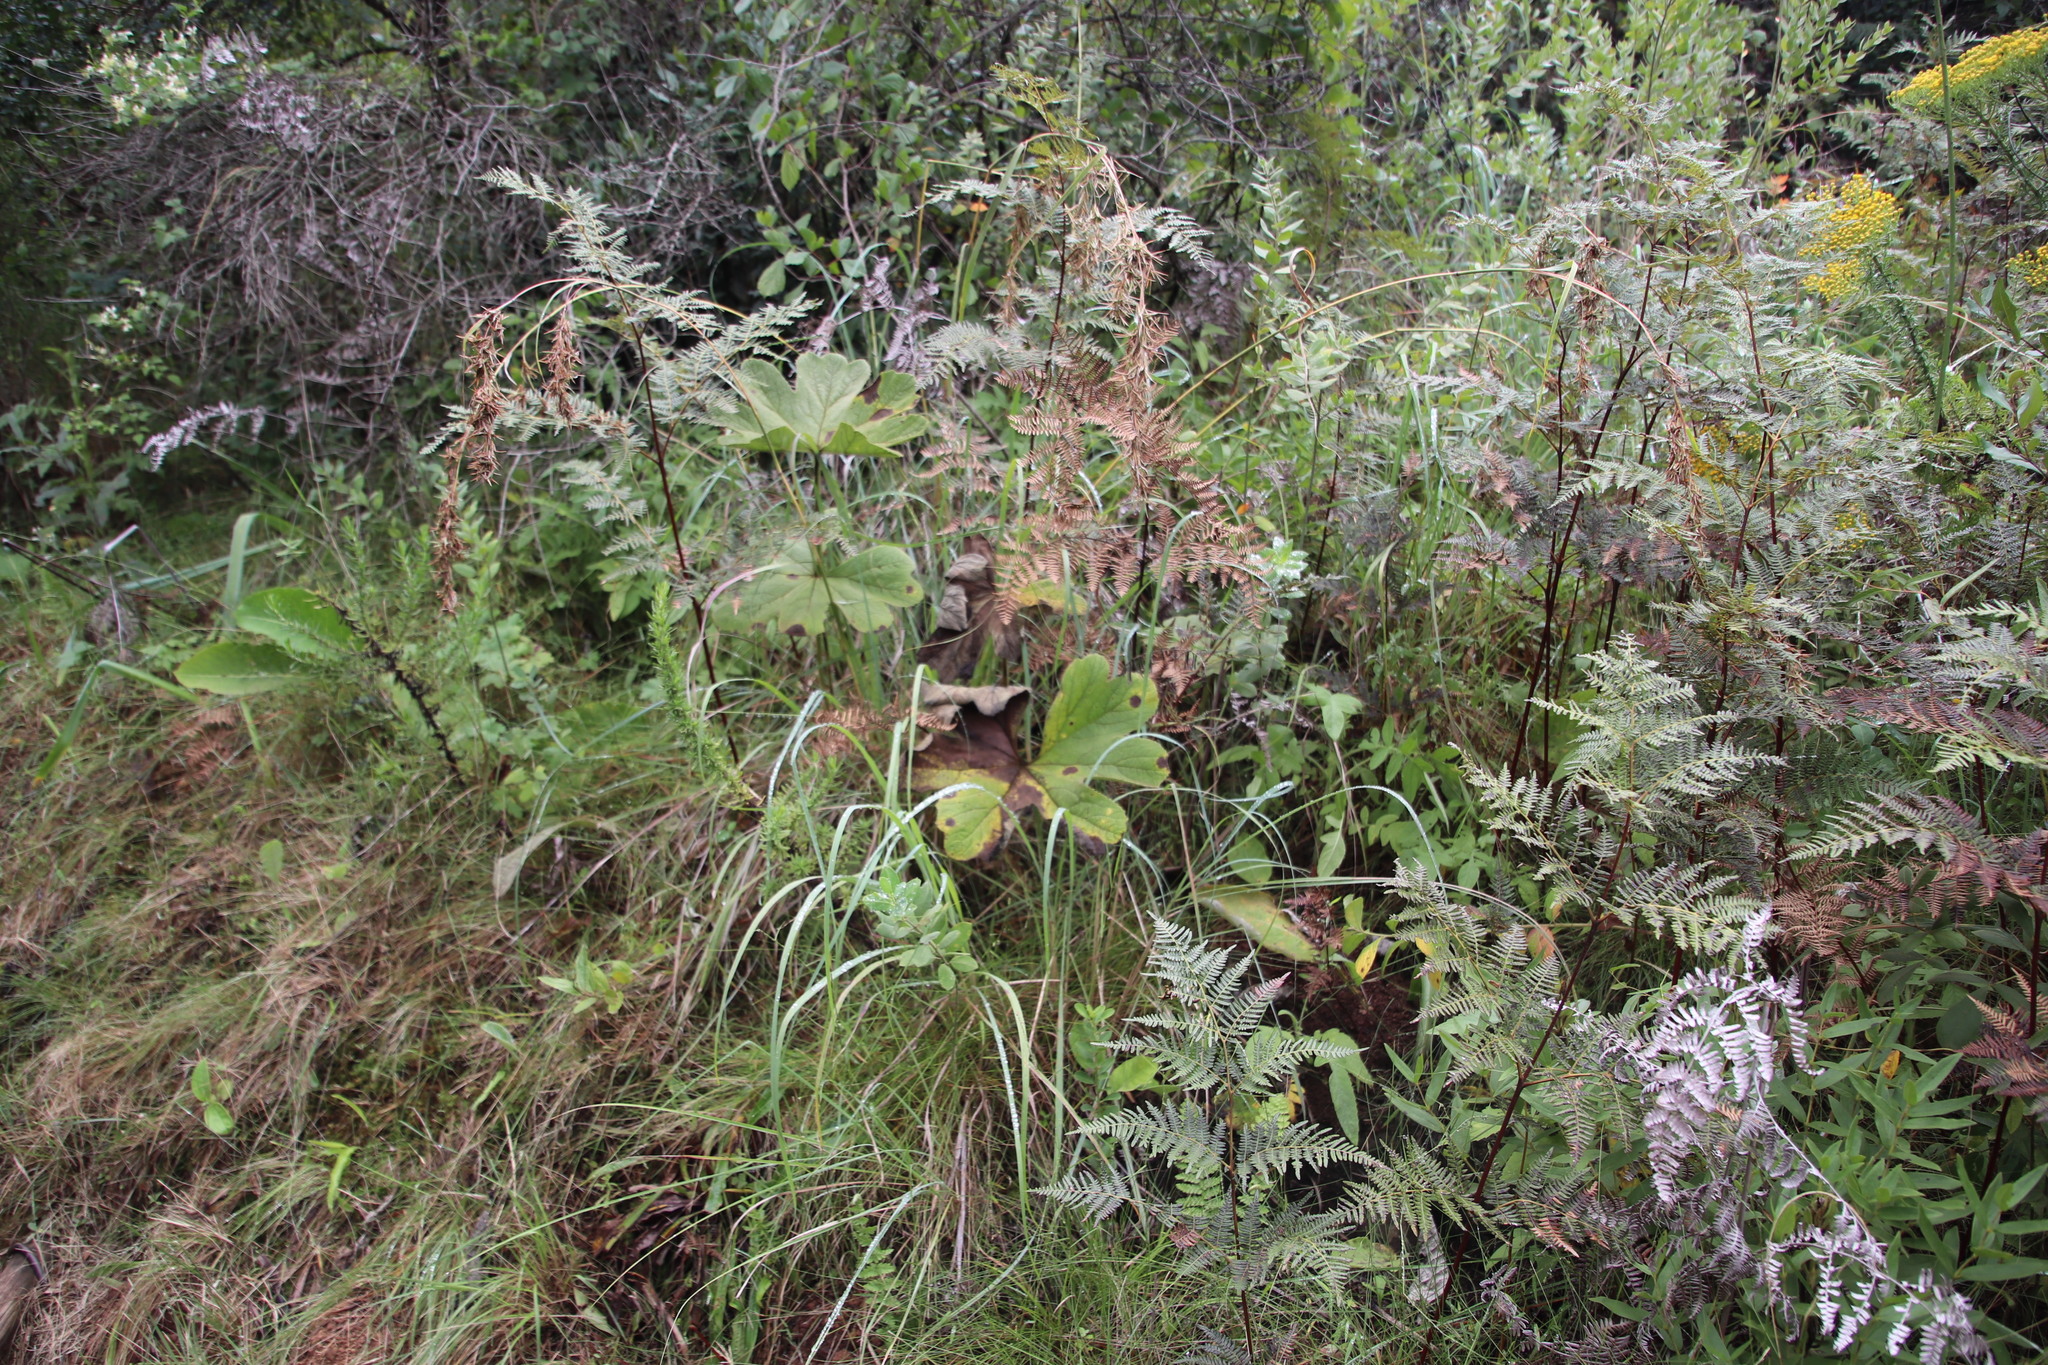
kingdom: Plantae
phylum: Tracheophyta
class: Magnoliopsida
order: Ranunculales
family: Ranunculaceae
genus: Knowltonia
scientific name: Knowltonia fanninii
